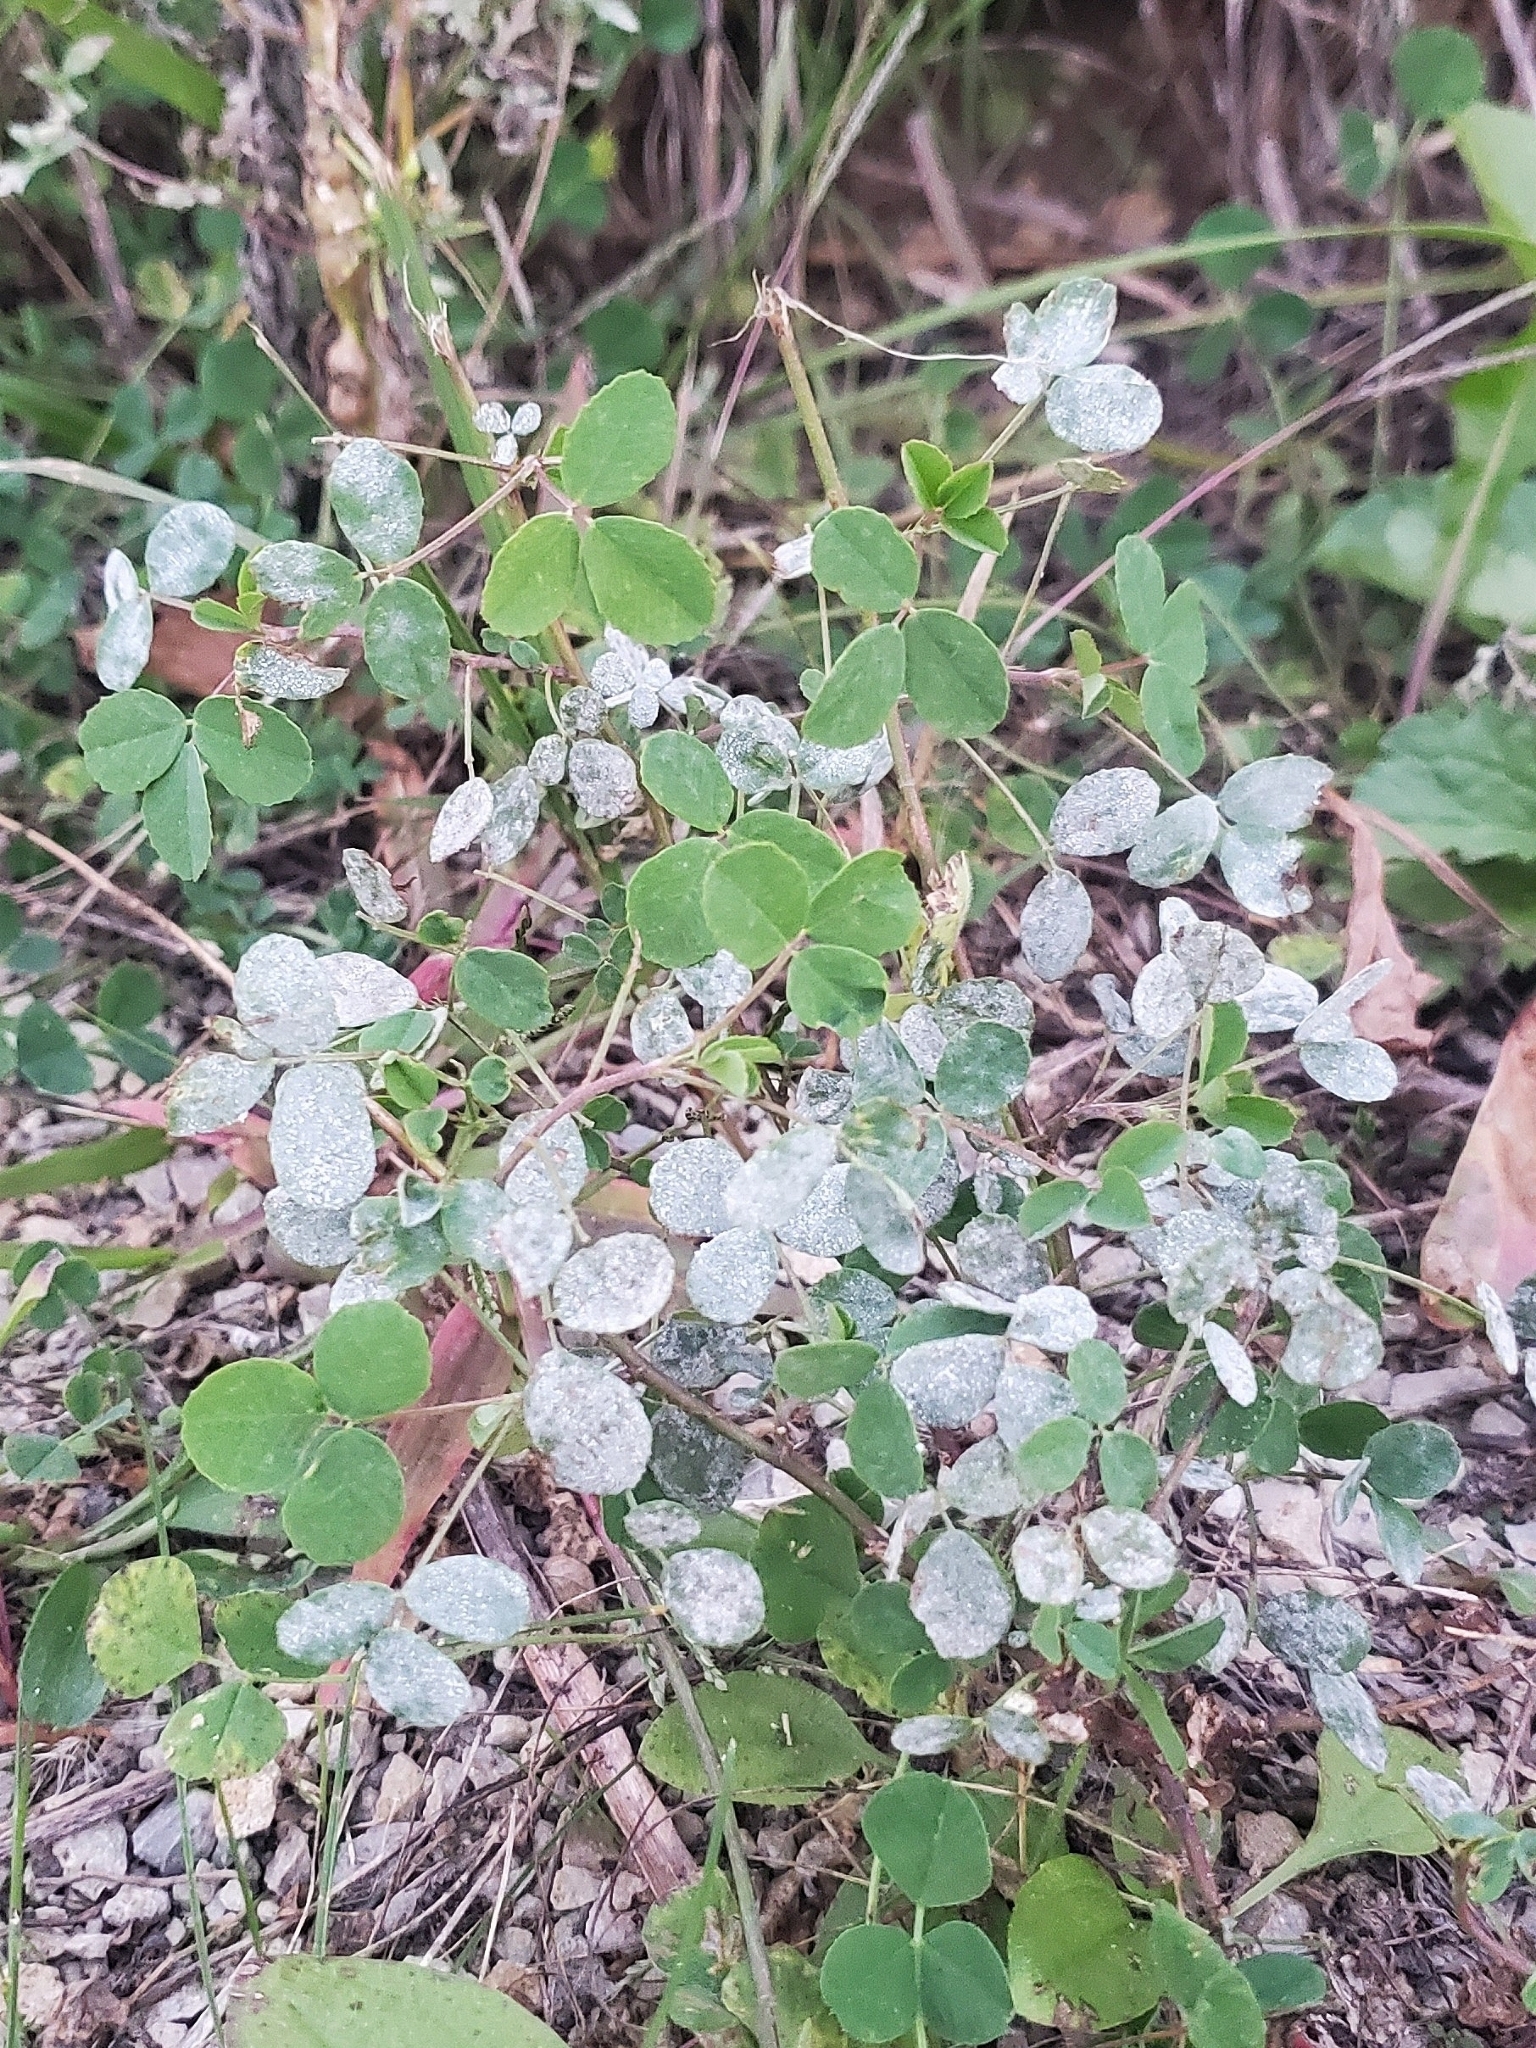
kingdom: Fungi
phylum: Ascomycota
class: Leotiomycetes
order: Helotiales
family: Erysiphaceae
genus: Erysiphe
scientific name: Erysiphe trifoliorum
